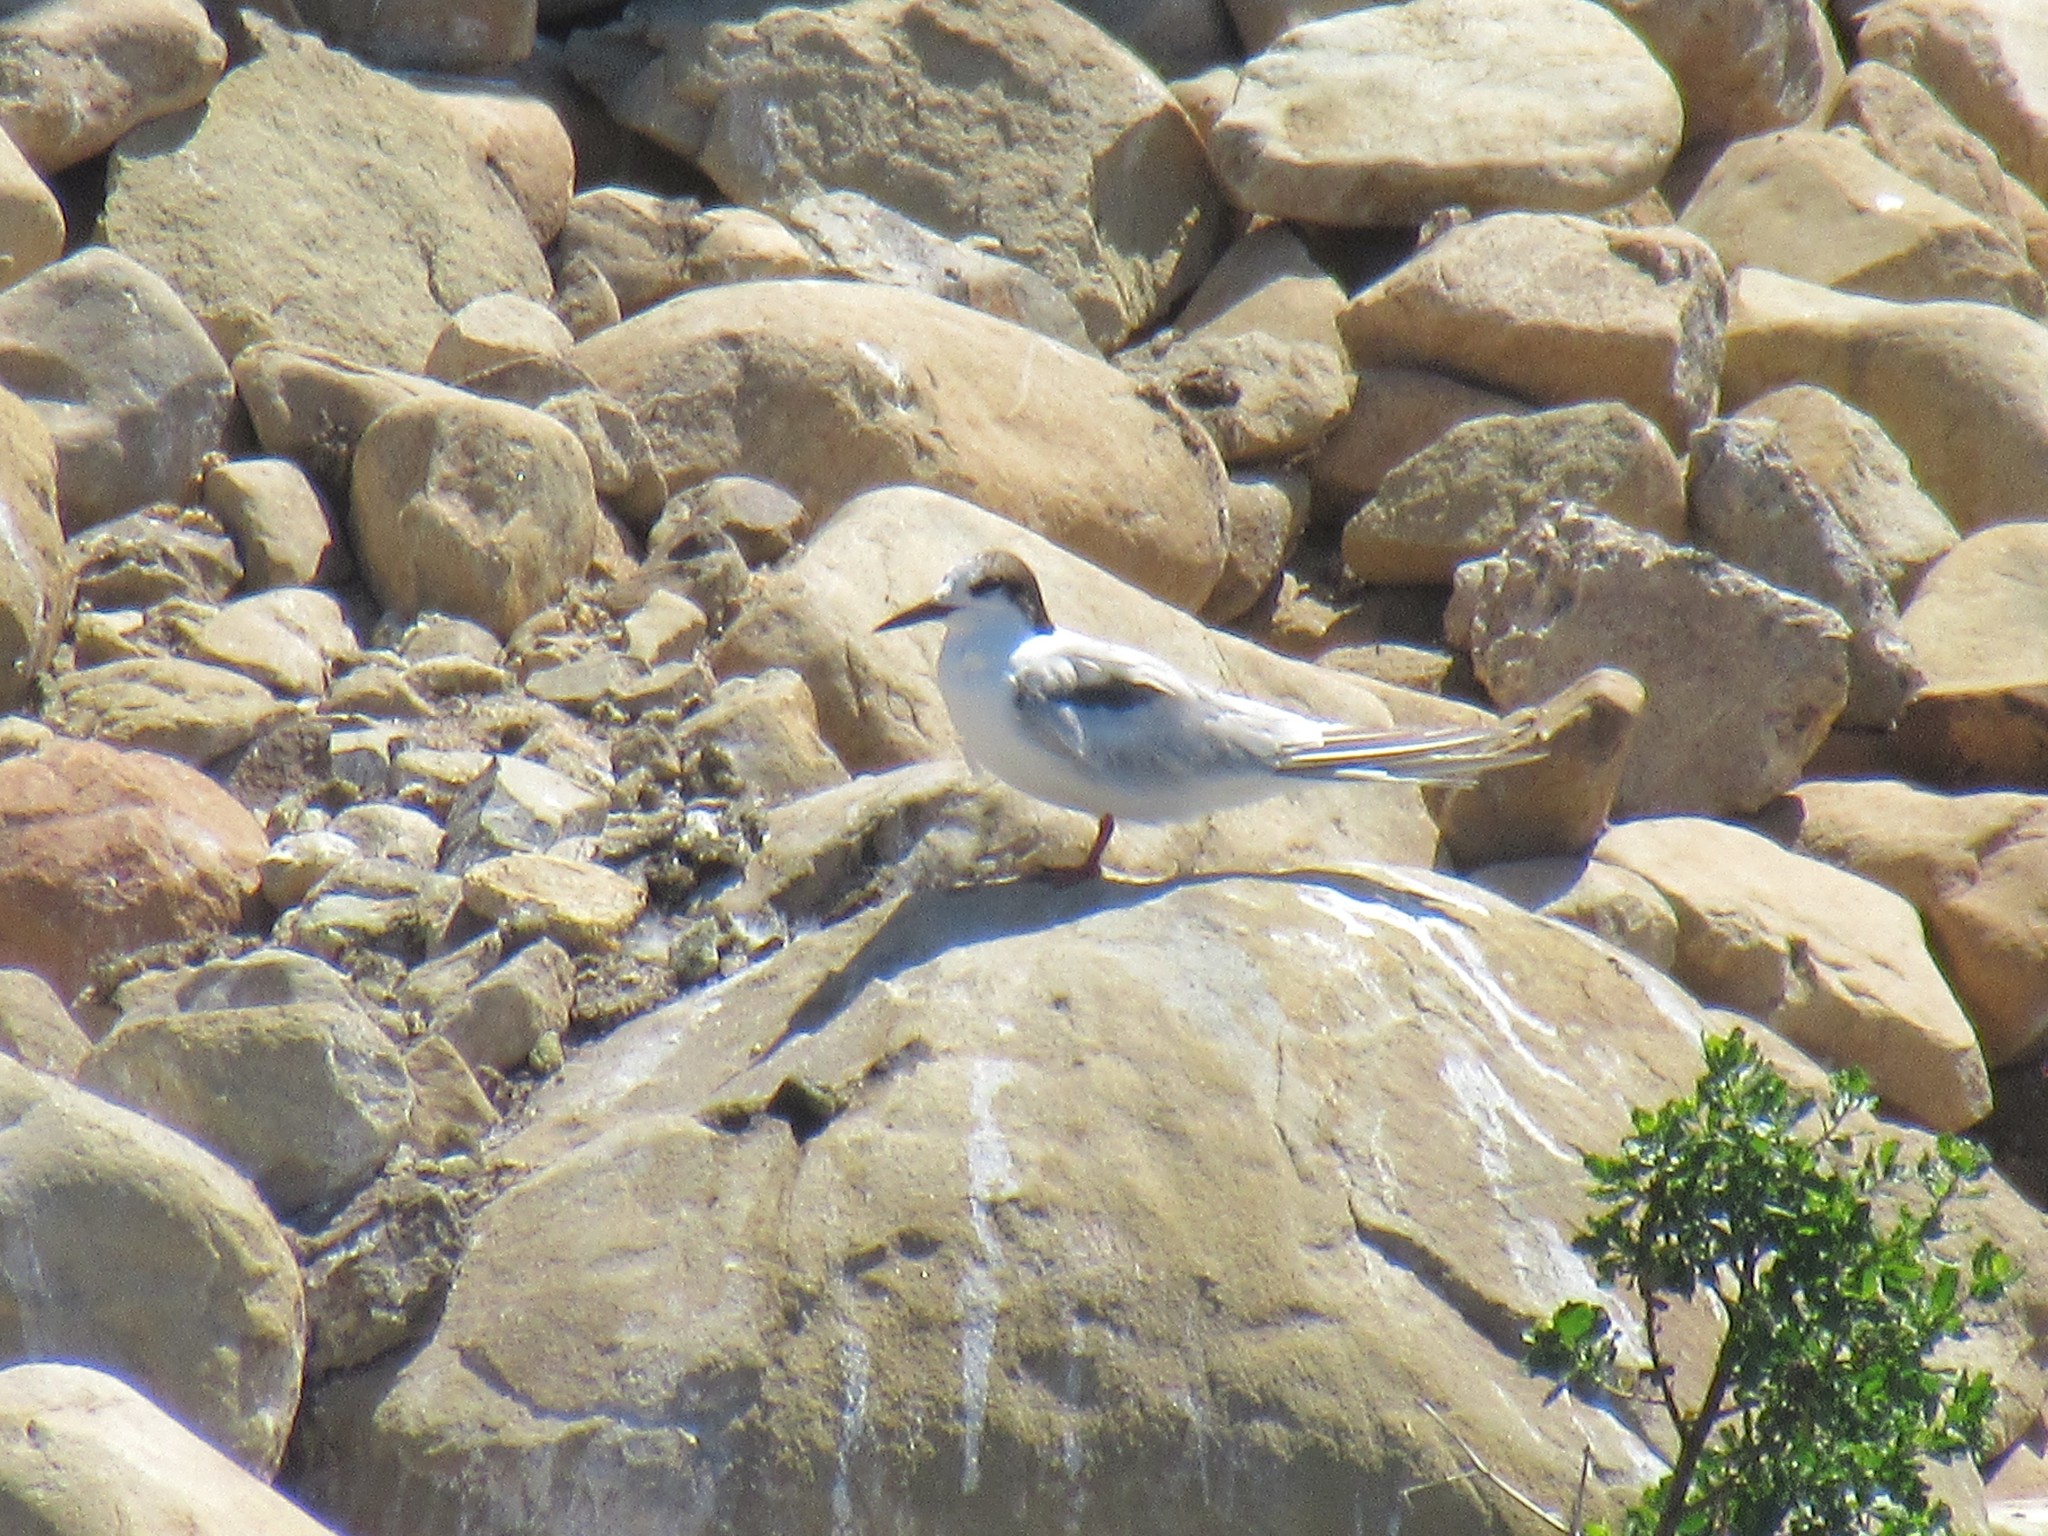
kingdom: Animalia
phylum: Chordata
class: Aves
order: Charadriiformes
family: Laridae
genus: Sterna
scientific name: Sterna hirundo
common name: Common tern
